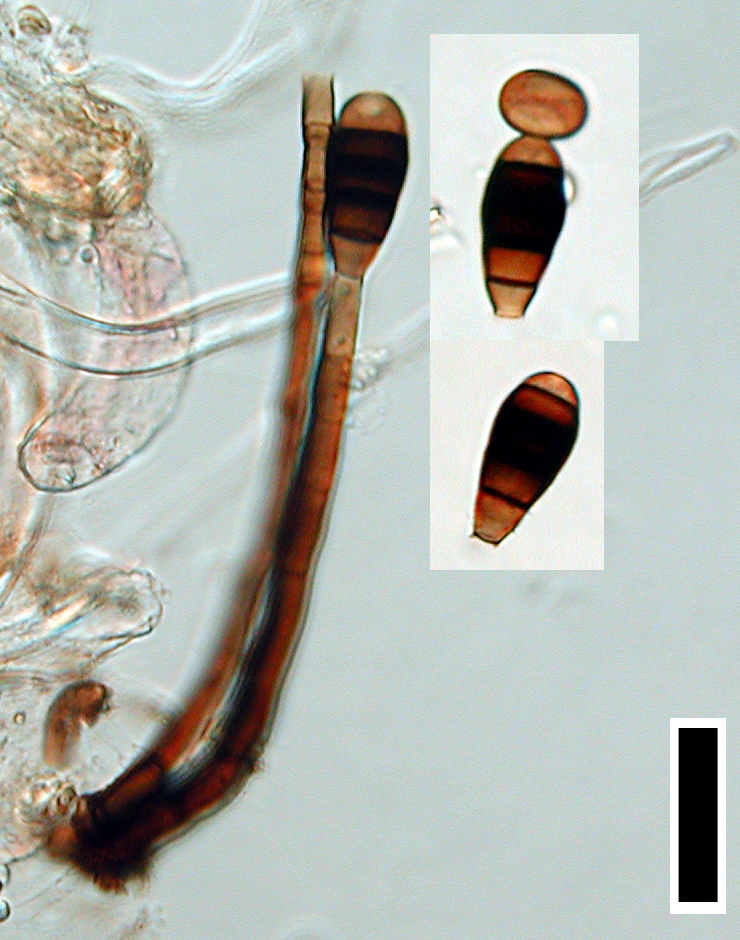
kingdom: Fungi
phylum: Ascomycota
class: Dothideomycetes
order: Pleosporales
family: Melanommataceae
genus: Phragmocephala
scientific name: Phragmocephala stemphylioides
